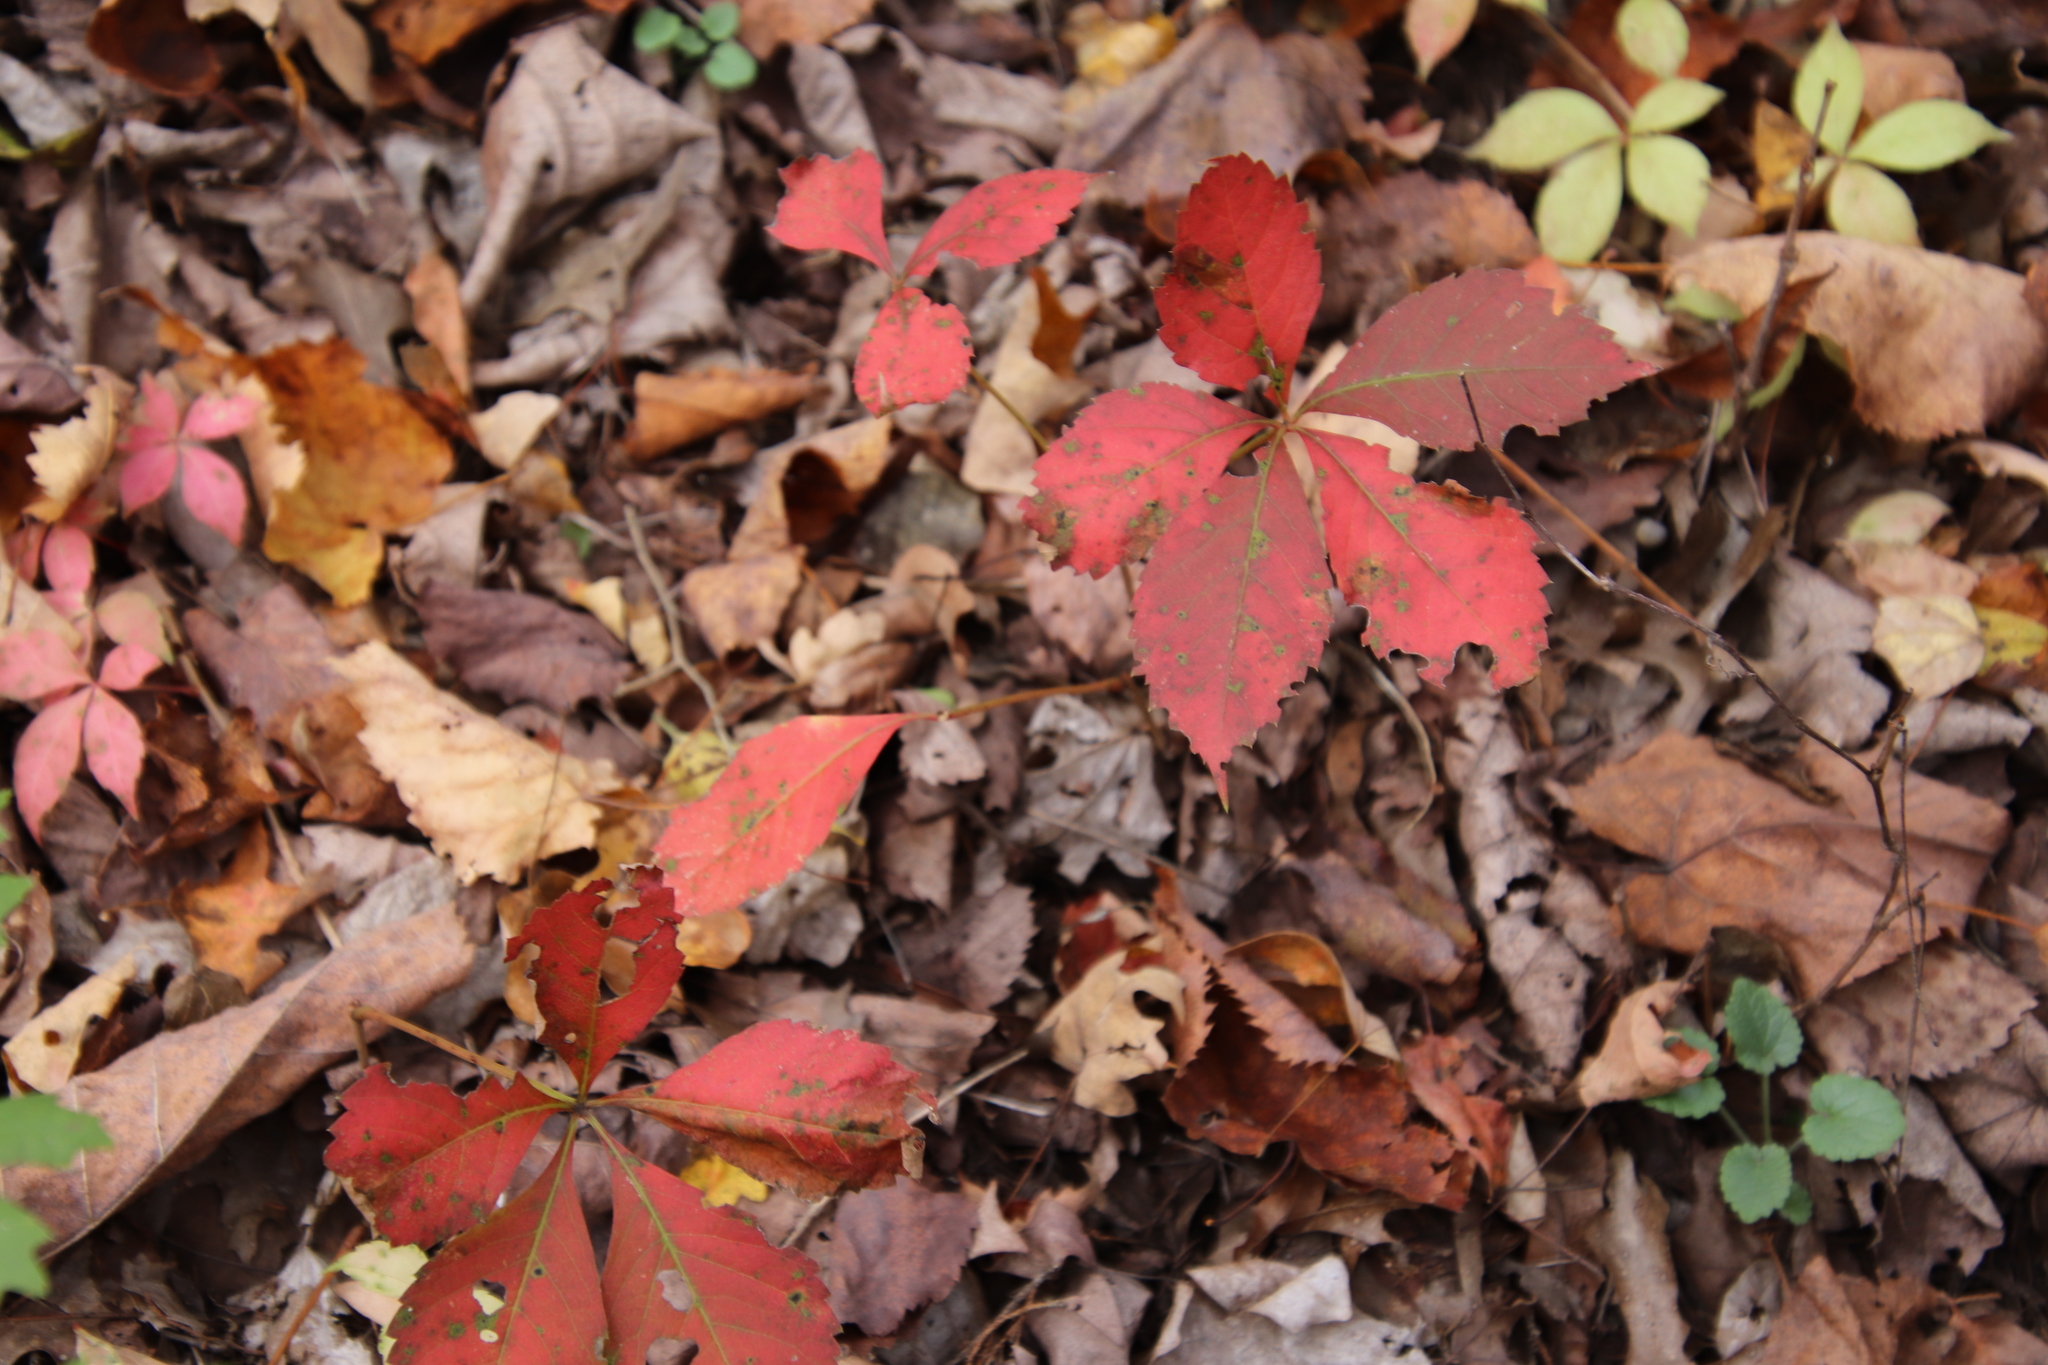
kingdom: Plantae
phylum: Tracheophyta
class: Magnoliopsida
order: Vitales
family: Vitaceae
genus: Parthenocissus
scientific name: Parthenocissus quinquefolia
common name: Virginia-creeper
